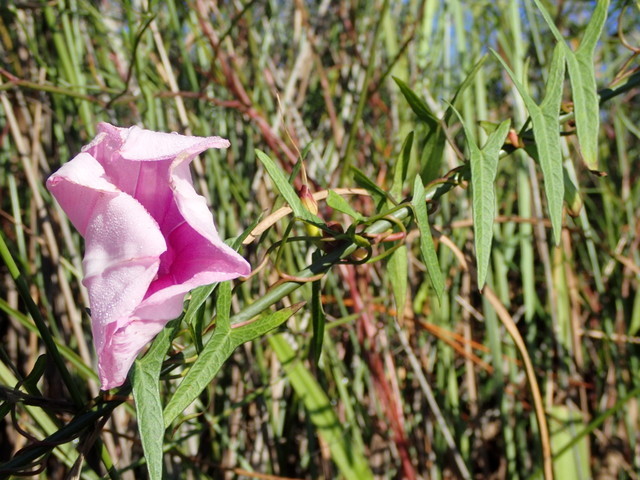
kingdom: Plantae
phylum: Tracheophyta
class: Magnoliopsida
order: Solanales
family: Convolvulaceae
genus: Ipomoea
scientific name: Ipomoea sagittata
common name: Saltmarsh morning glory
